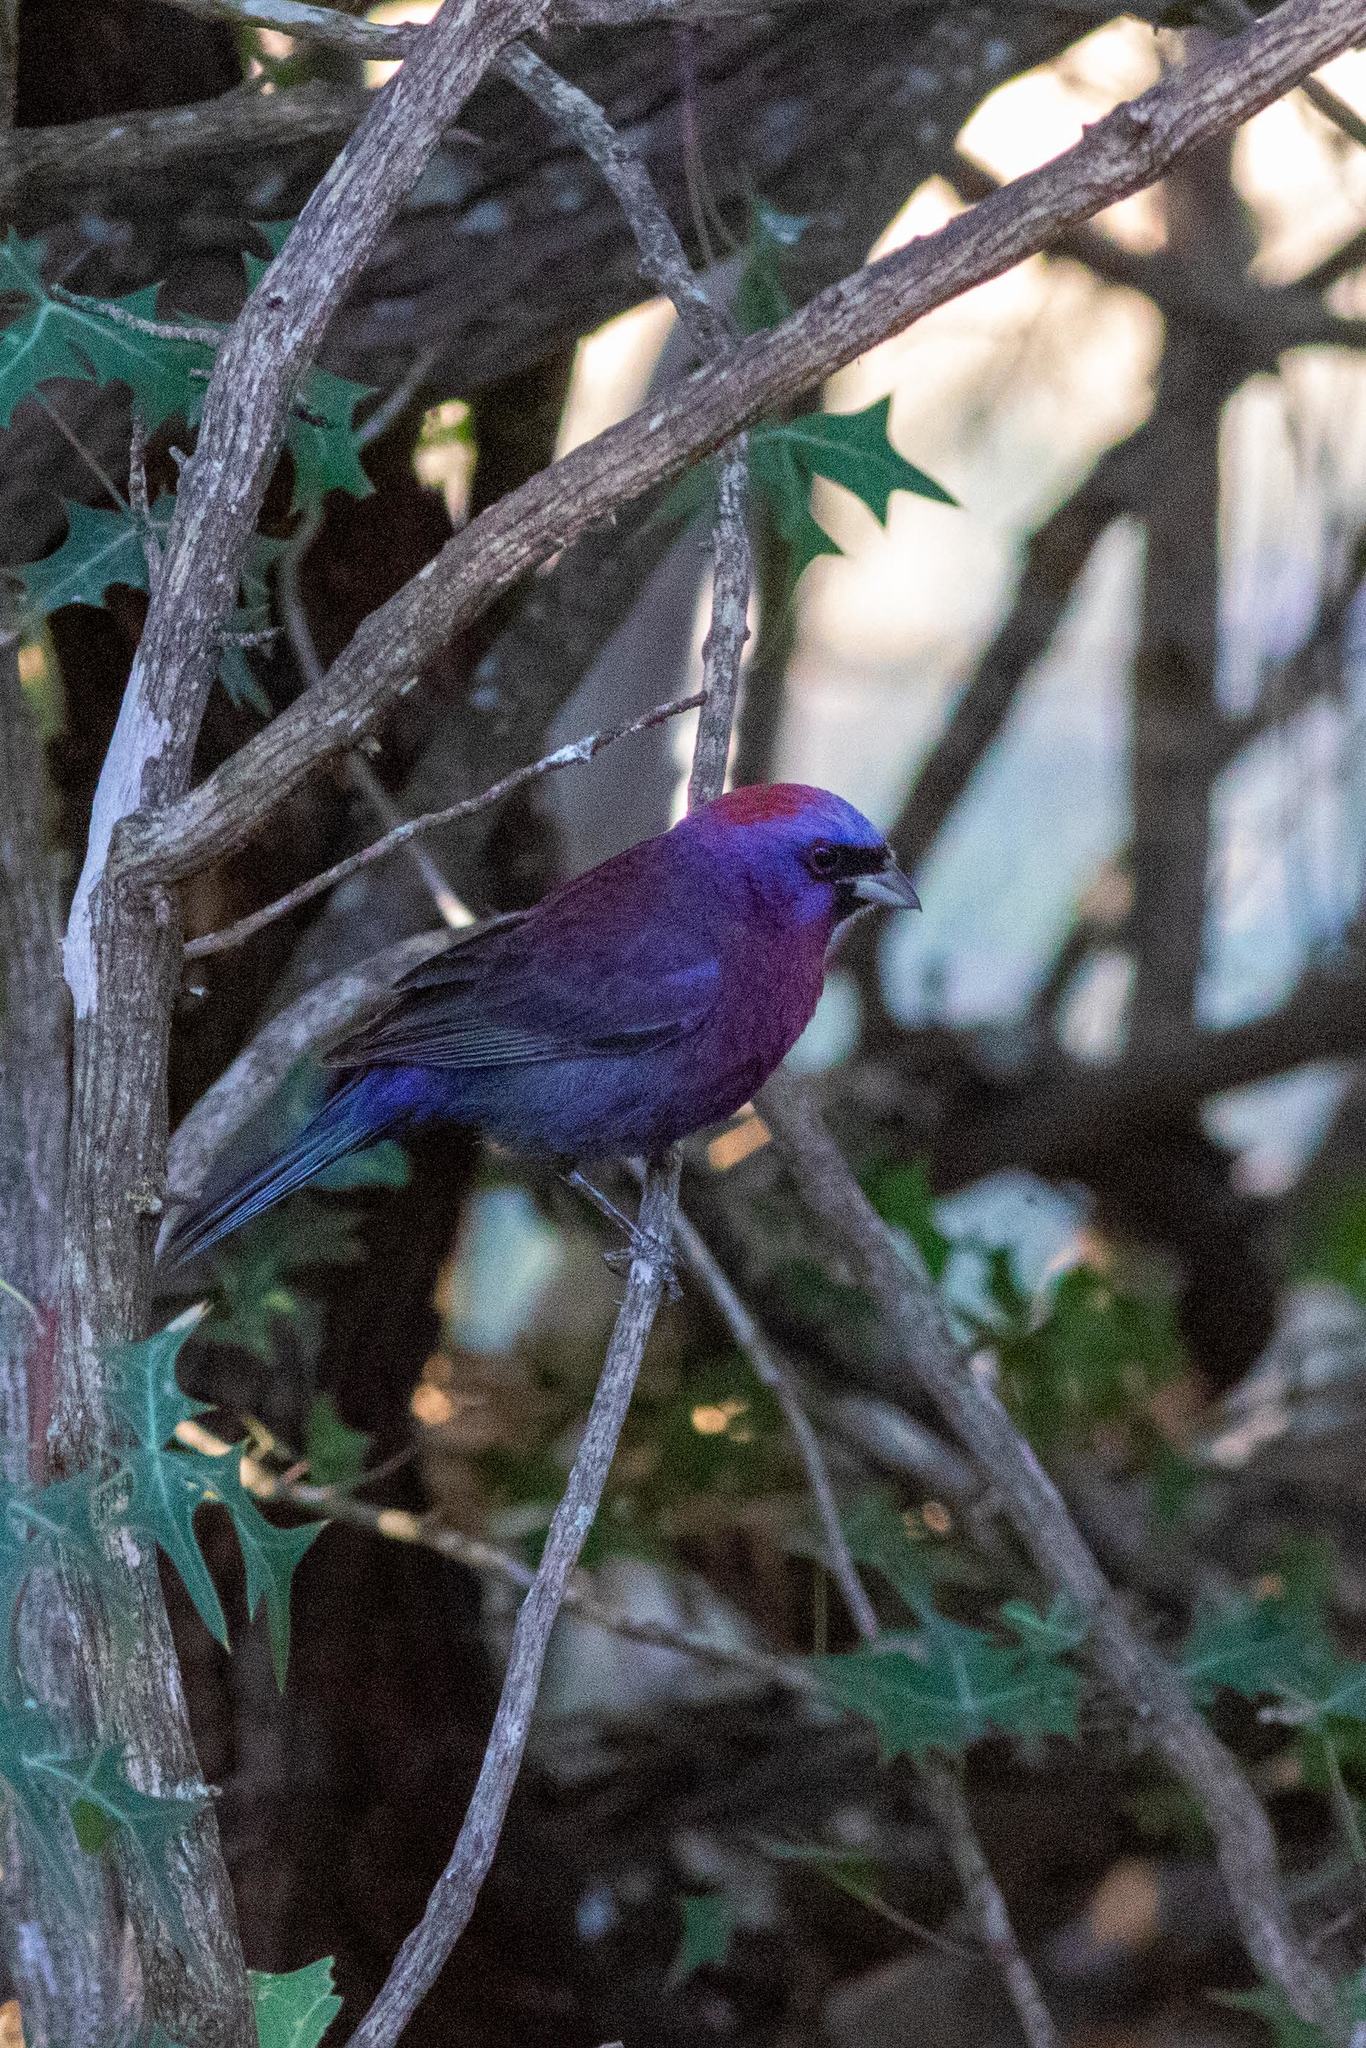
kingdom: Animalia
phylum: Chordata
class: Aves
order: Passeriformes
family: Cardinalidae
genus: Passerina
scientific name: Passerina versicolor
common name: Varied bunting
